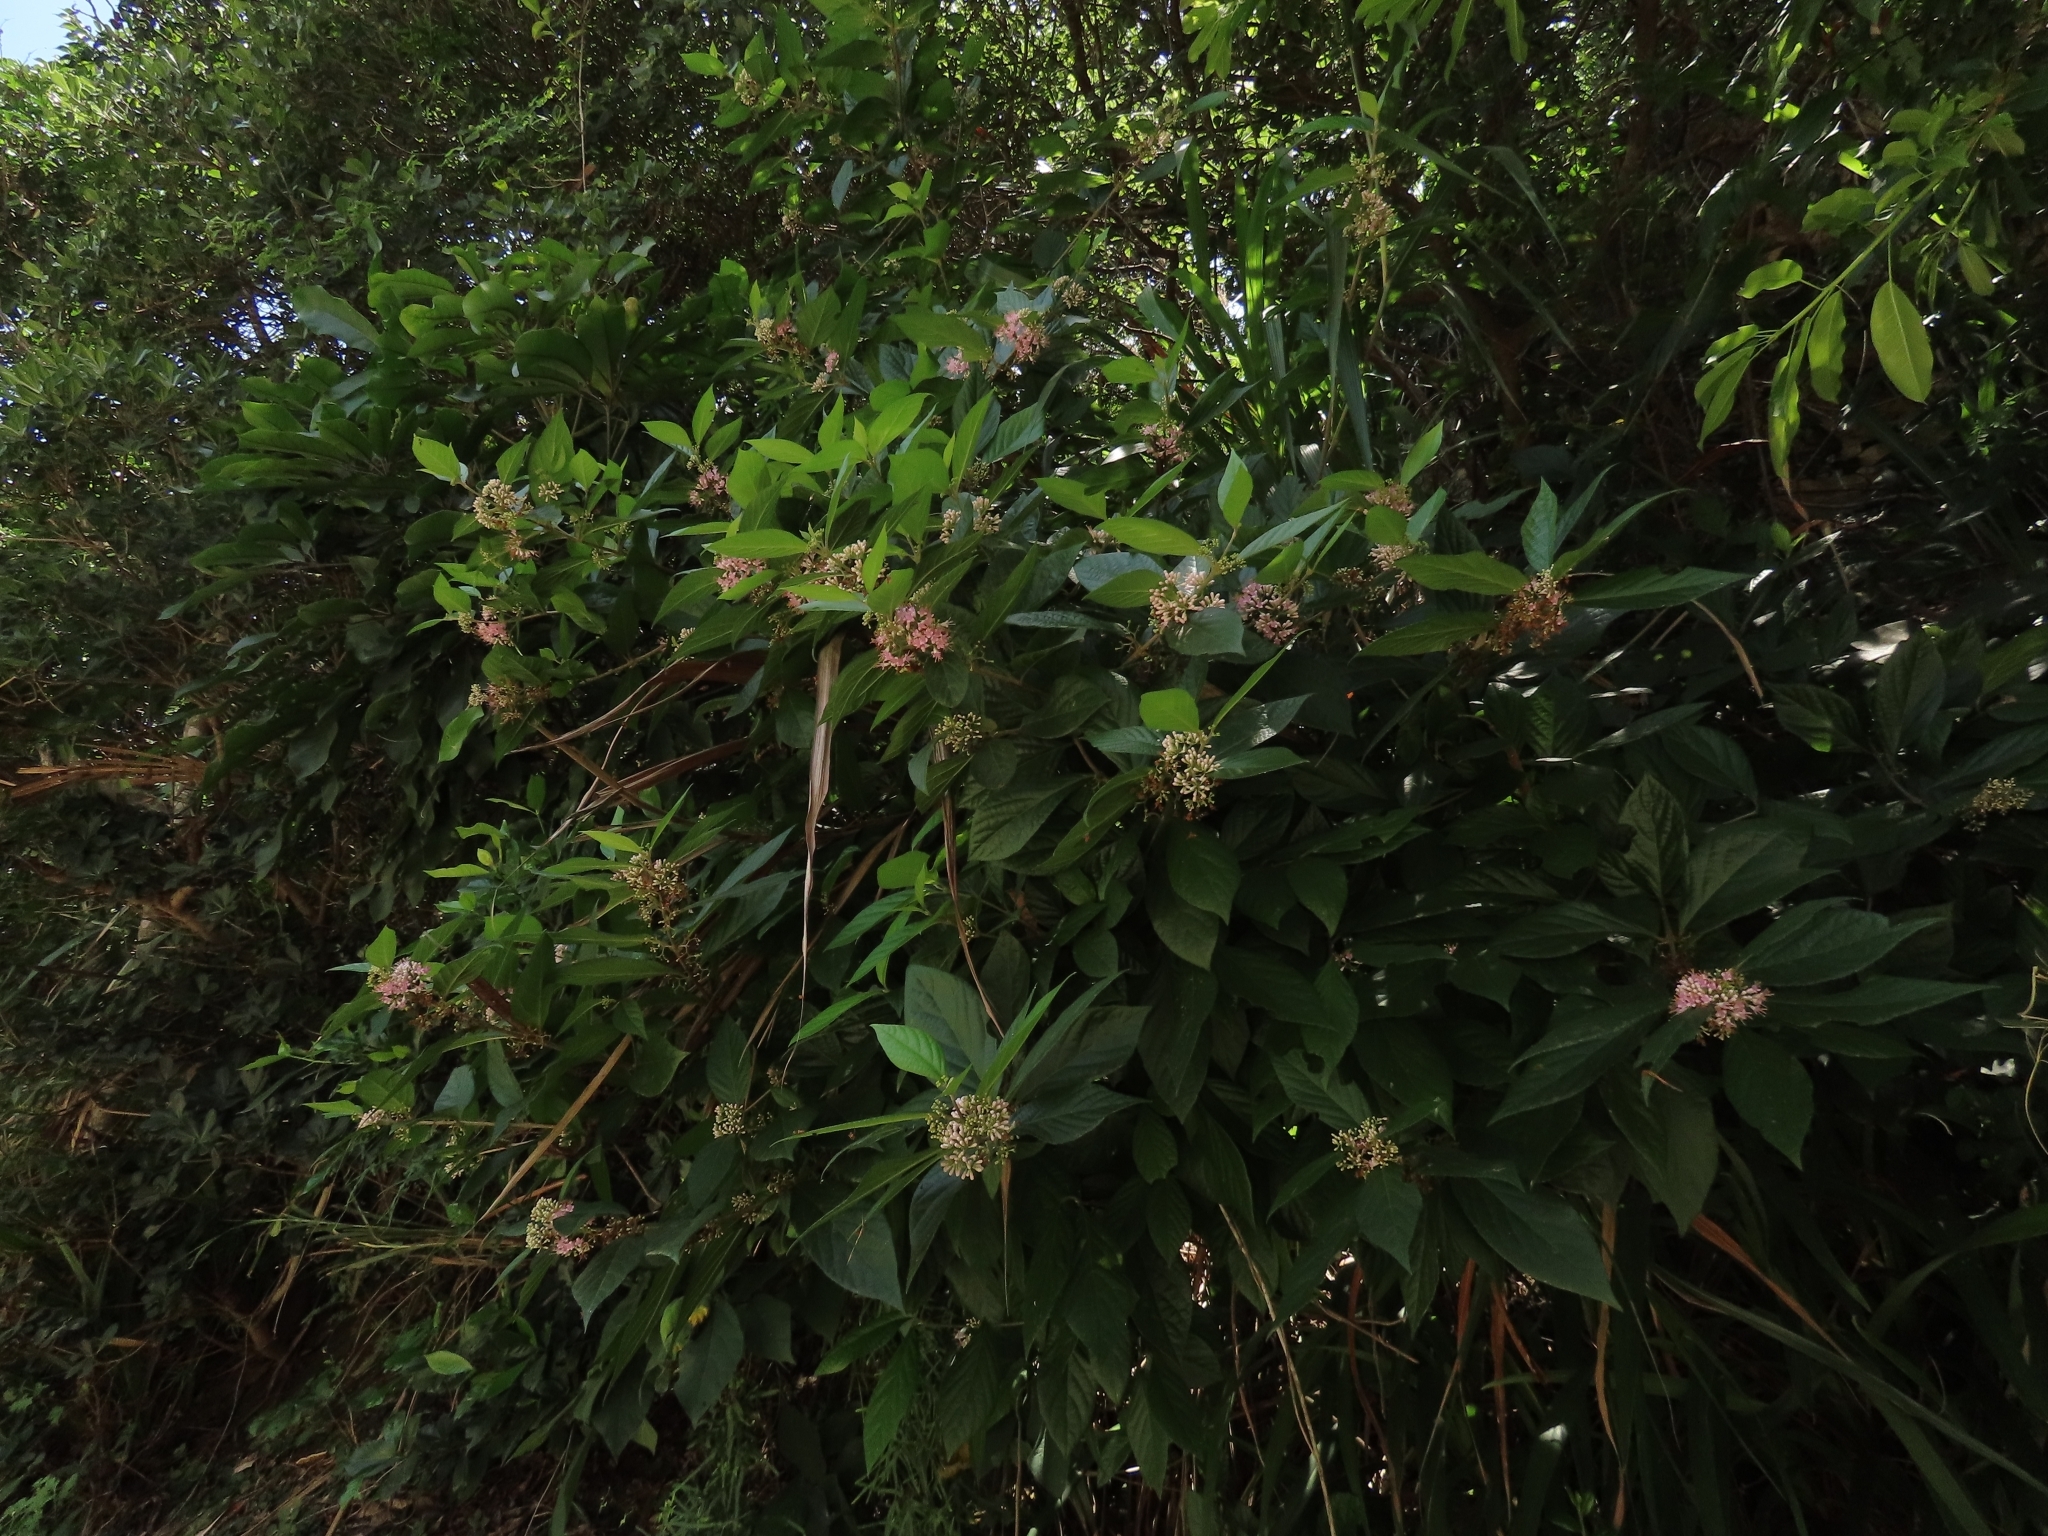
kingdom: Plantae
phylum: Tracheophyta
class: Magnoliopsida
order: Lamiales
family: Lamiaceae
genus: Callicarpa
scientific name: Callicarpa japonica
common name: Japanese beauty-berry
